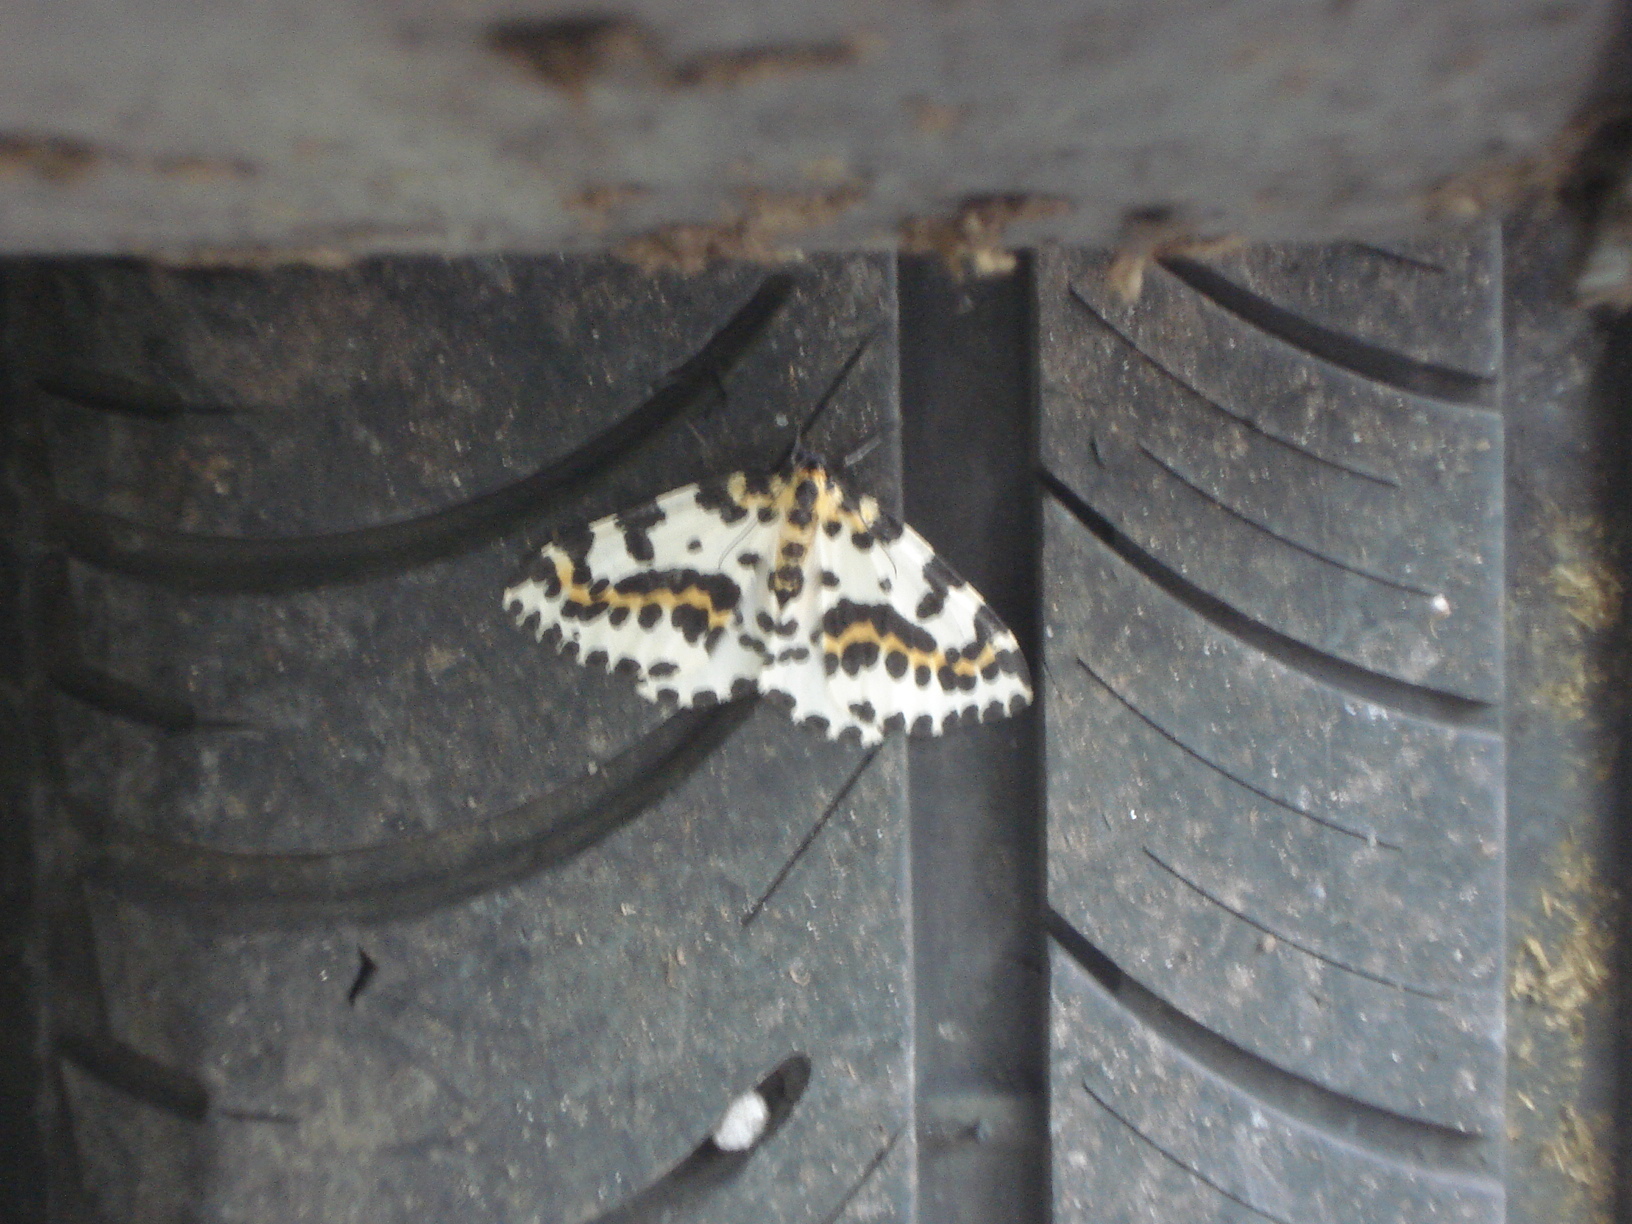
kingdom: Animalia
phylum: Arthropoda
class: Insecta
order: Lepidoptera
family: Geometridae
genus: Abraxas
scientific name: Abraxas grossulariata
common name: Magpie
